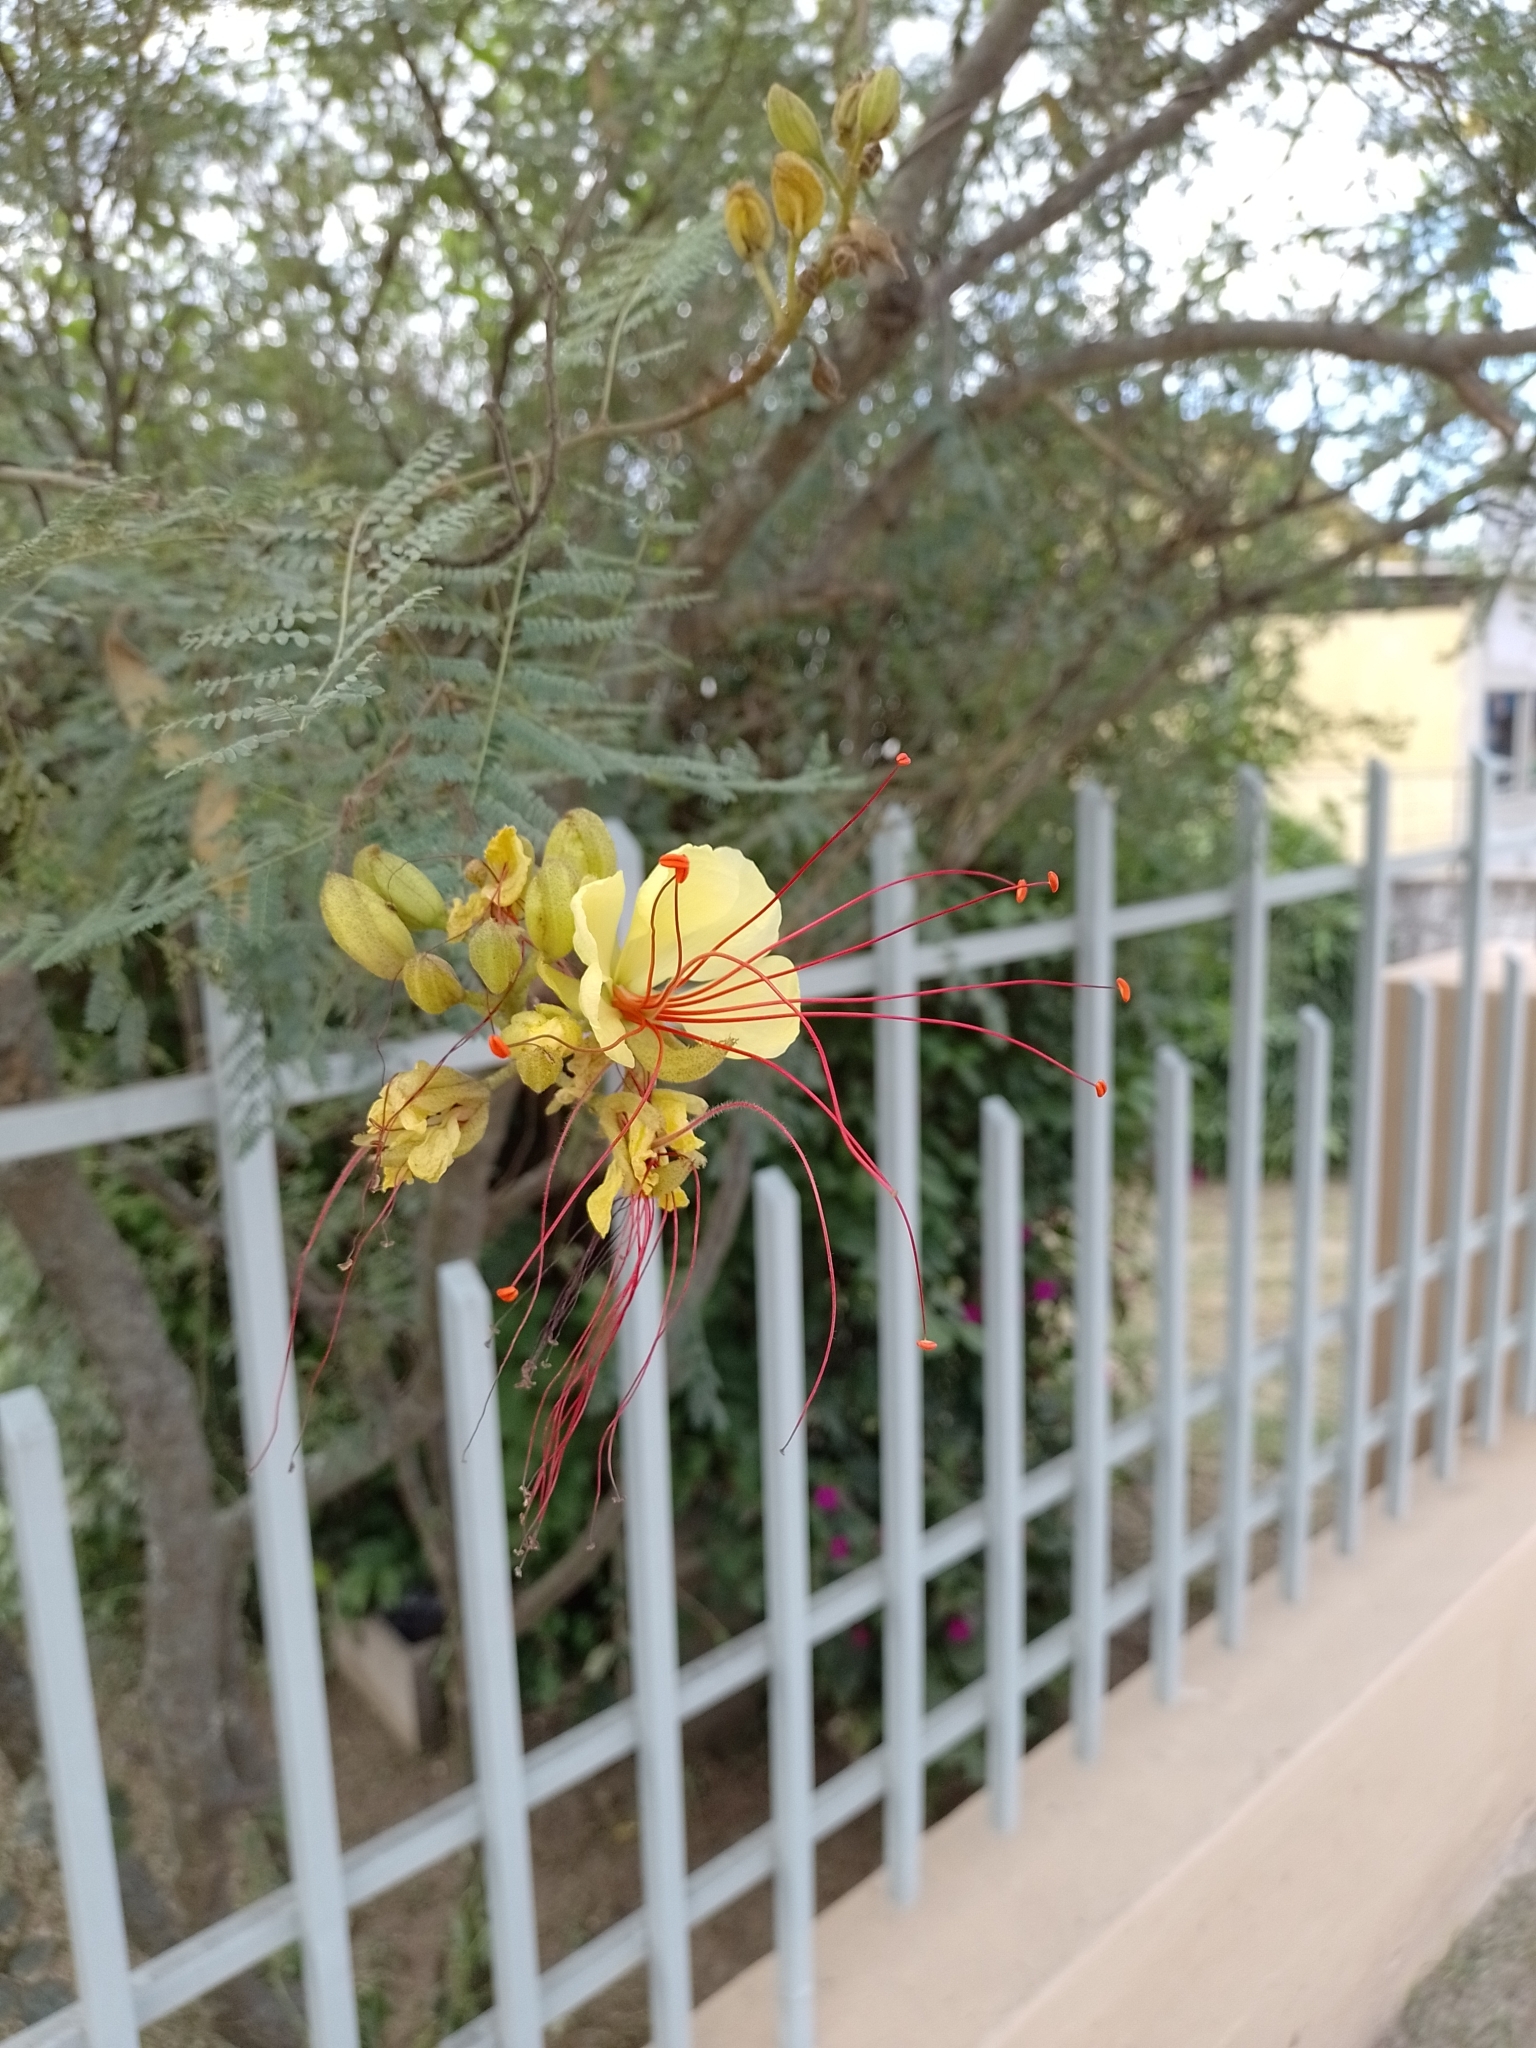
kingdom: Plantae
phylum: Tracheophyta
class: Magnoliopsida
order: Fabales
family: Fabaceae
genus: Erythrostemon
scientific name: Erythrostemon gilliesii
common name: Bird-of-paradise shrub
